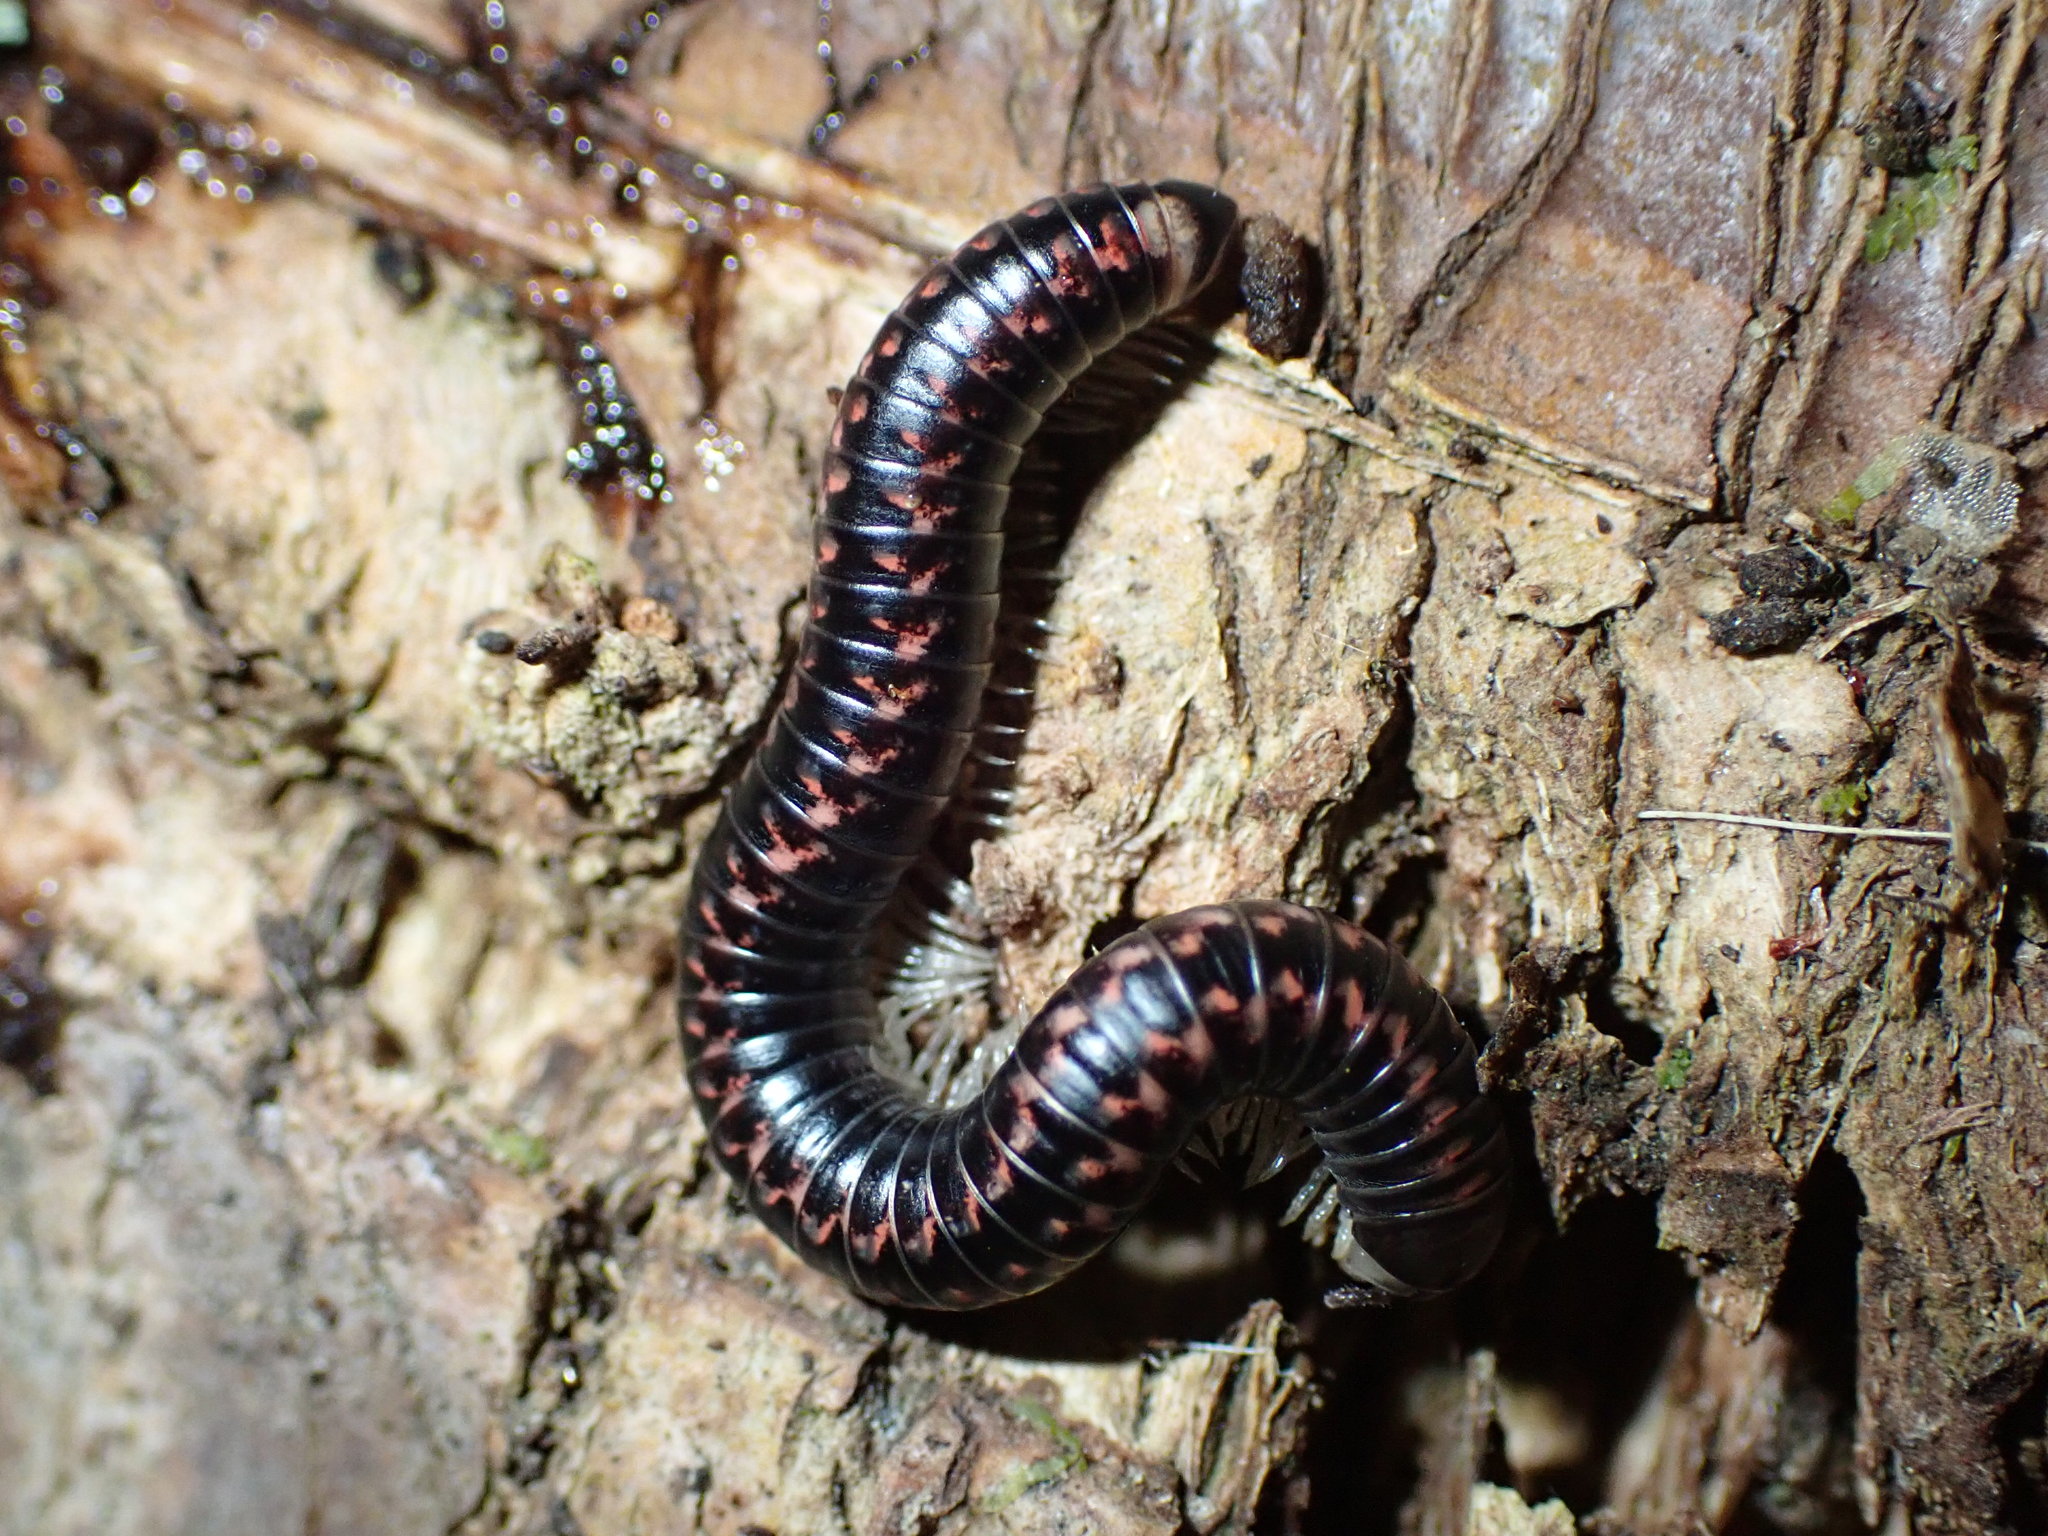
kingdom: Animalia
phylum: Arthropoda
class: Diplopoda
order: Spirobolida
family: Spirobolellidae
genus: Spirobolellus
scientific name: Spirobolellus antipodarum
